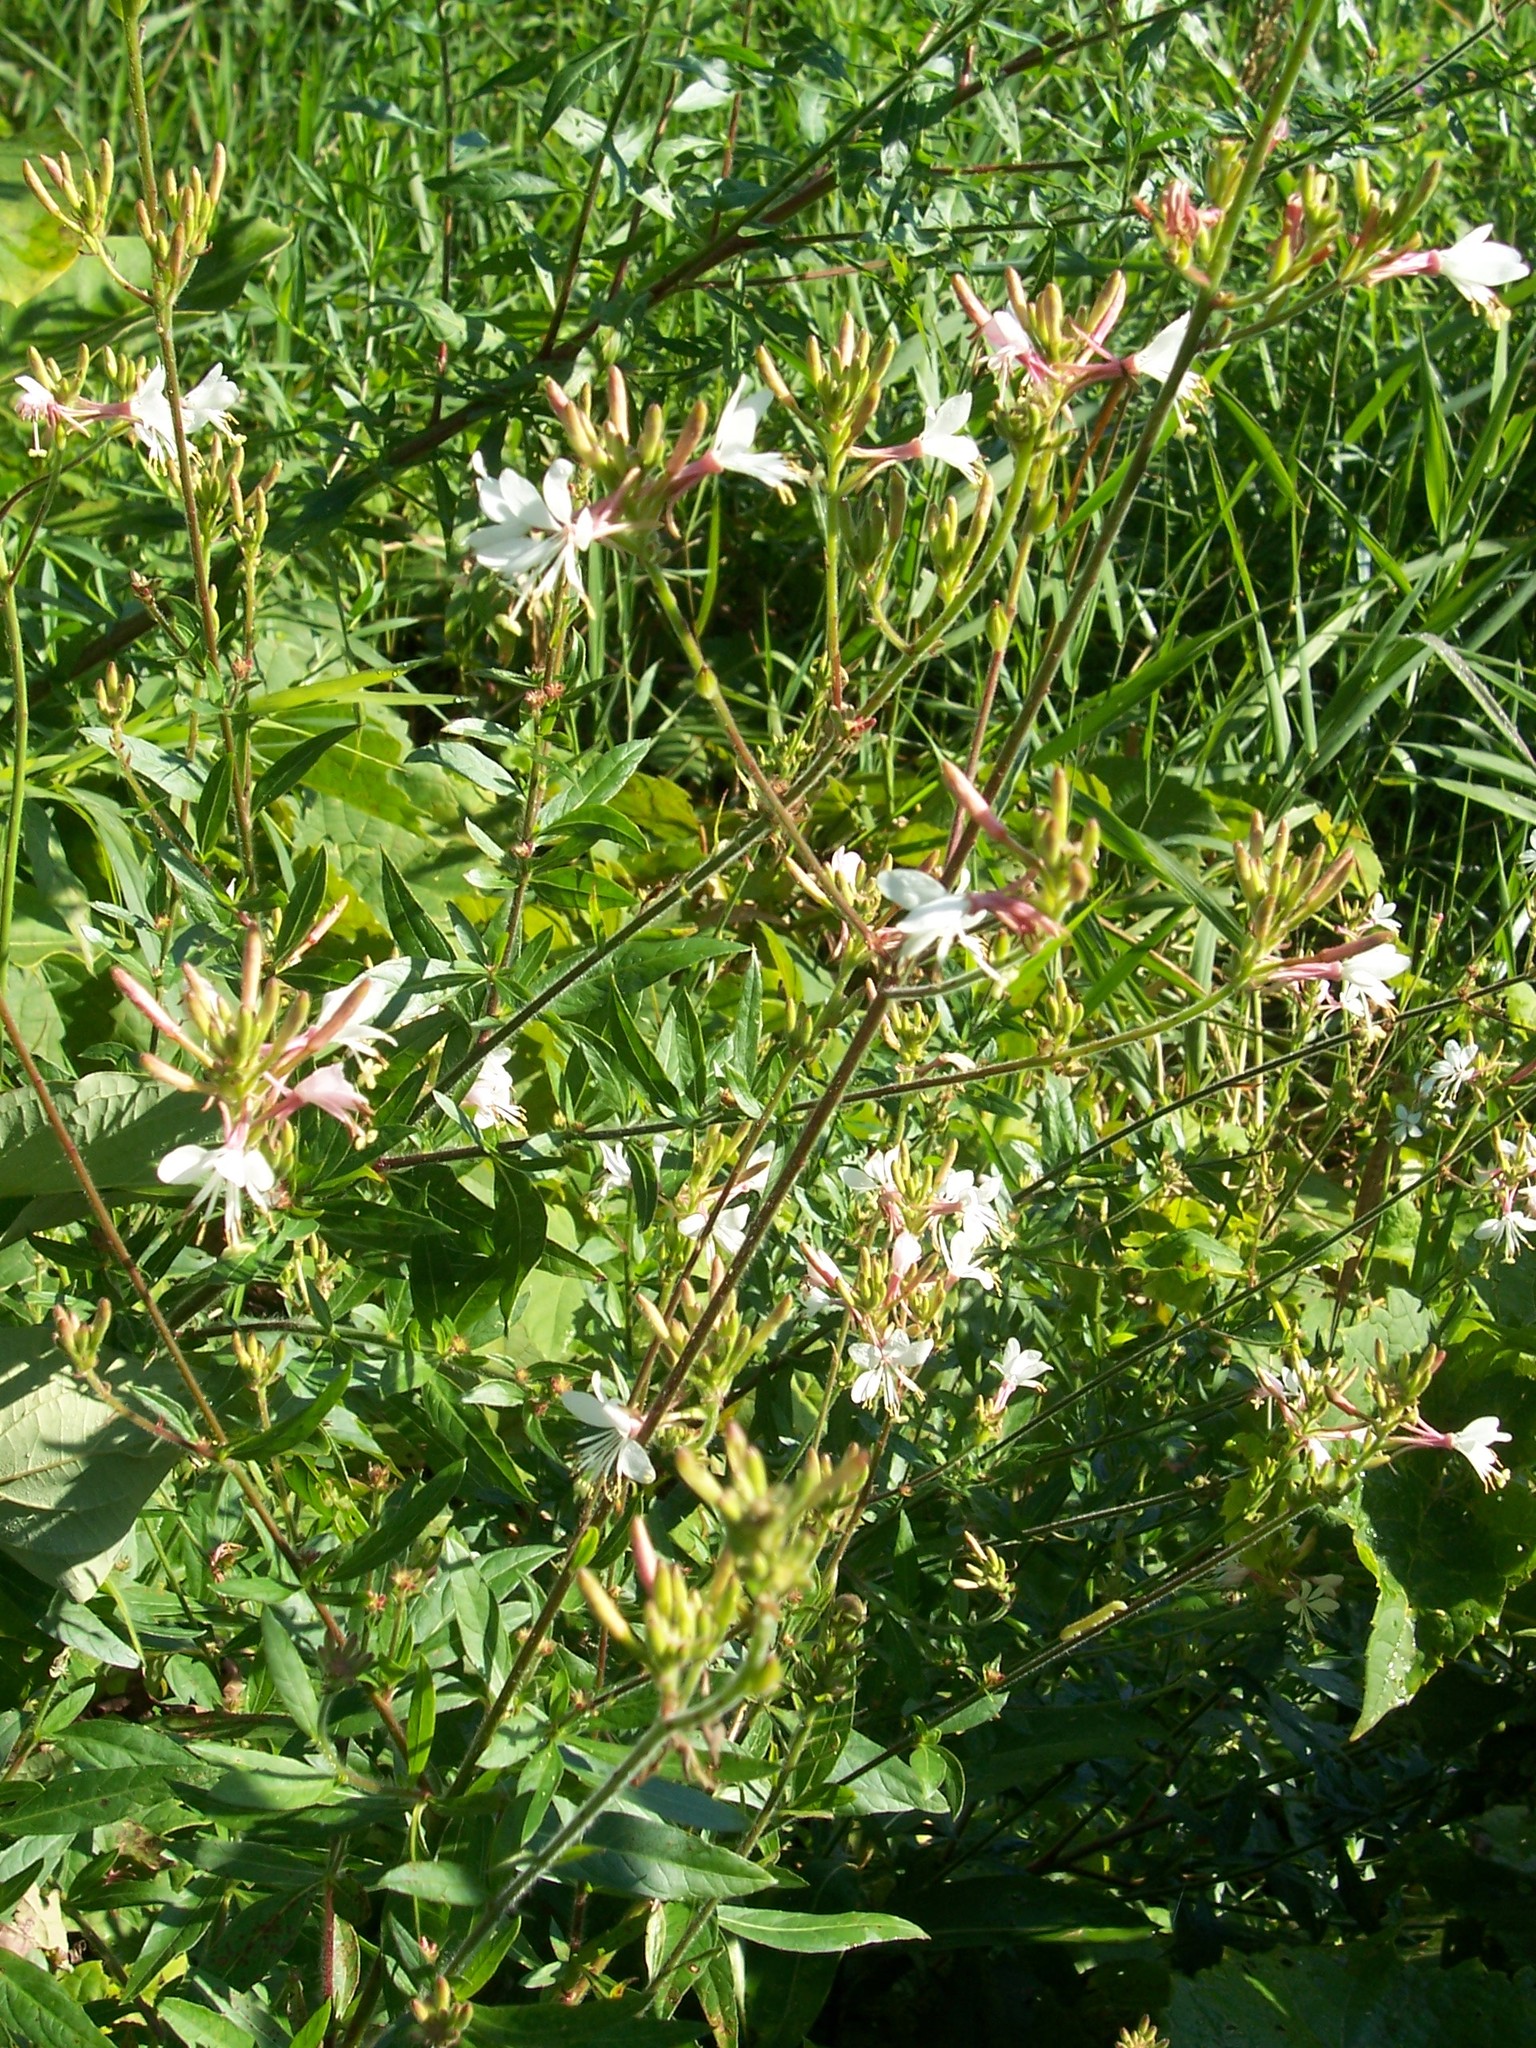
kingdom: Plantae
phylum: Tracheophyta
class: Magnoliopsida
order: Myrtales
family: Onagraceae
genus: Oenothera
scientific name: Oenothera gaura
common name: Biennial beeblossom
